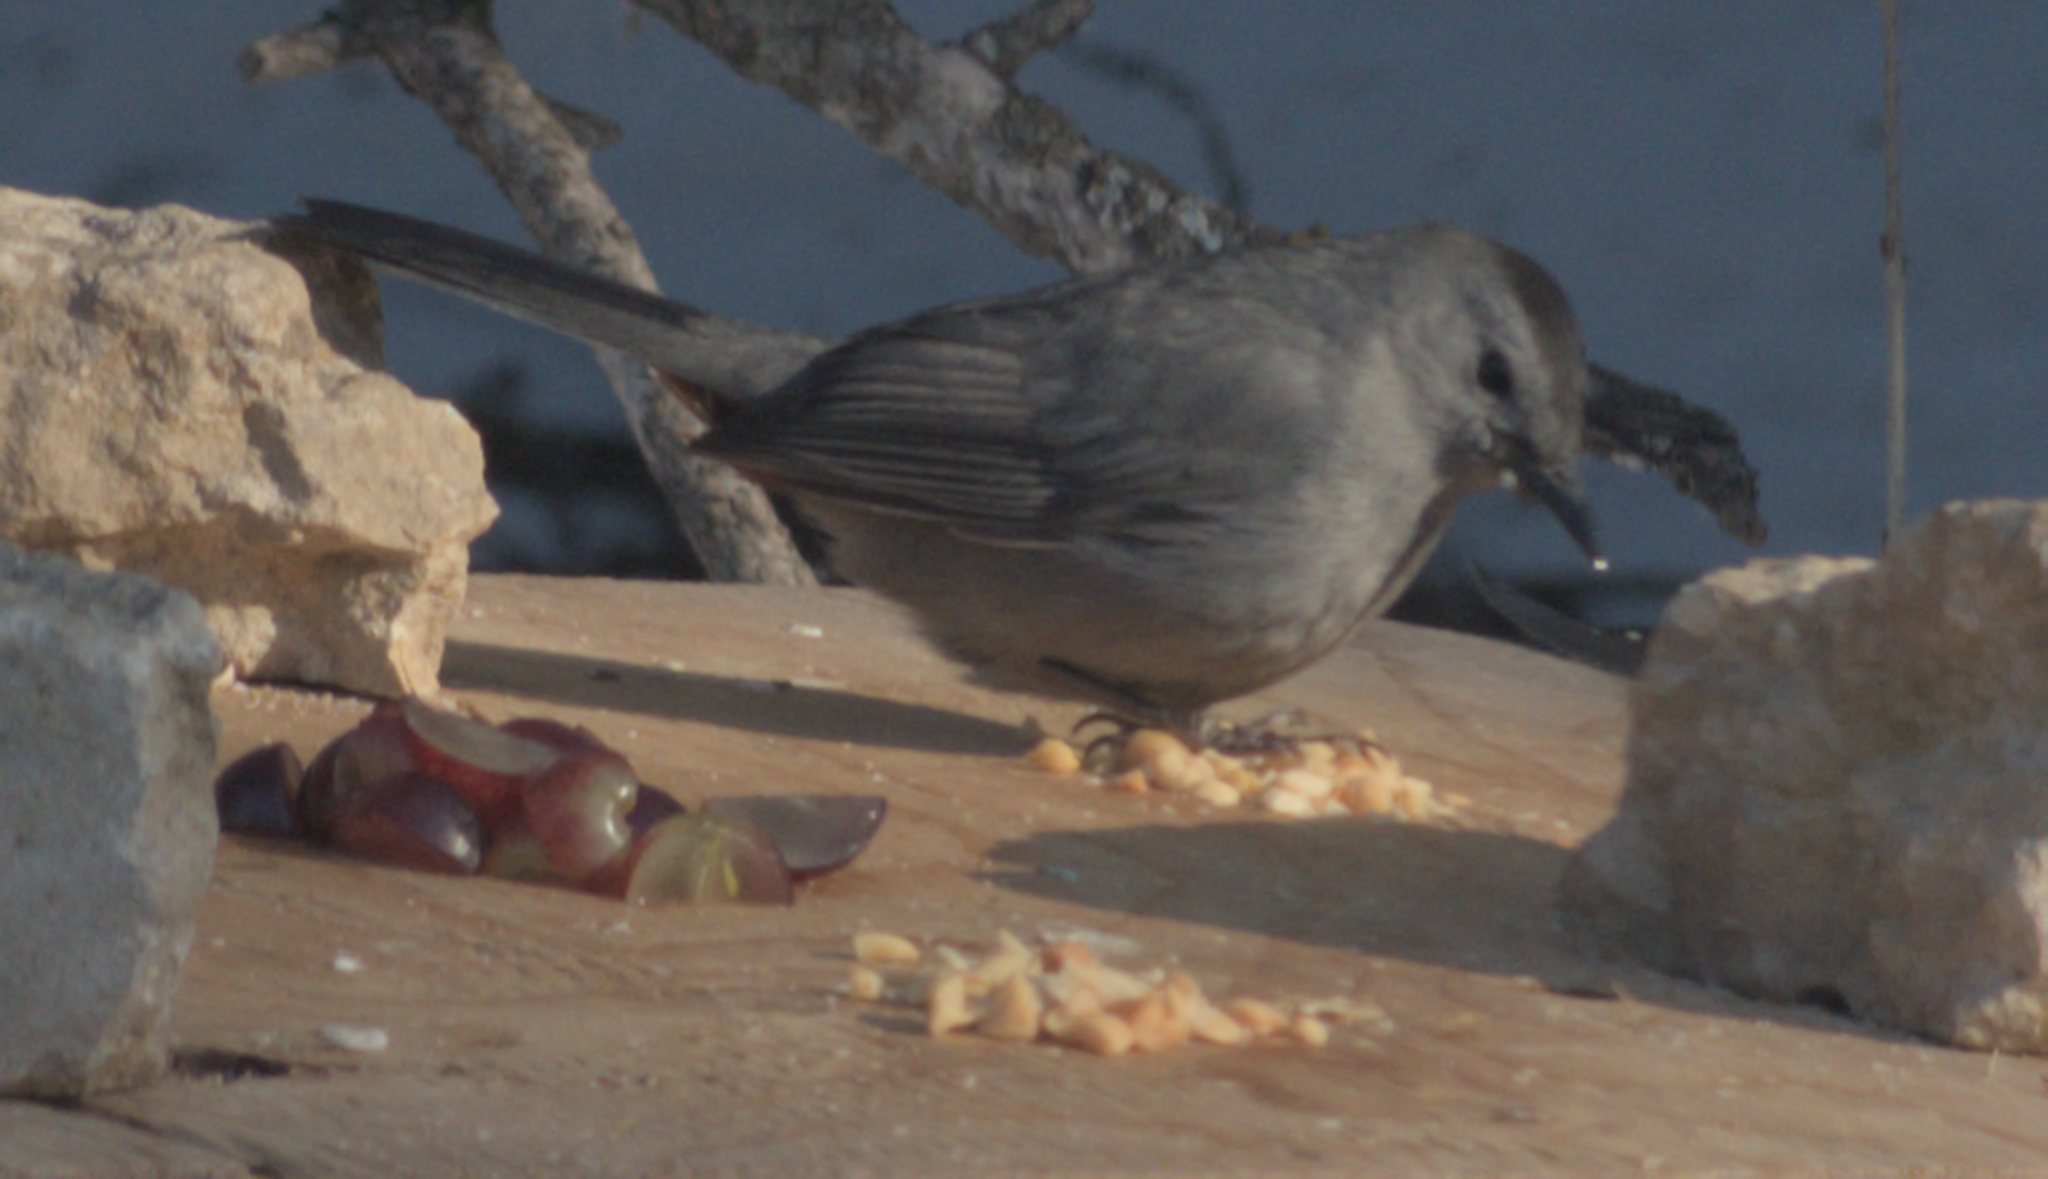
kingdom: Animalia
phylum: Chordata
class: Aves
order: Passeriformes
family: Mimidae
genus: Dumetella
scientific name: Dumetella carolinensis
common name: Gray catbird
